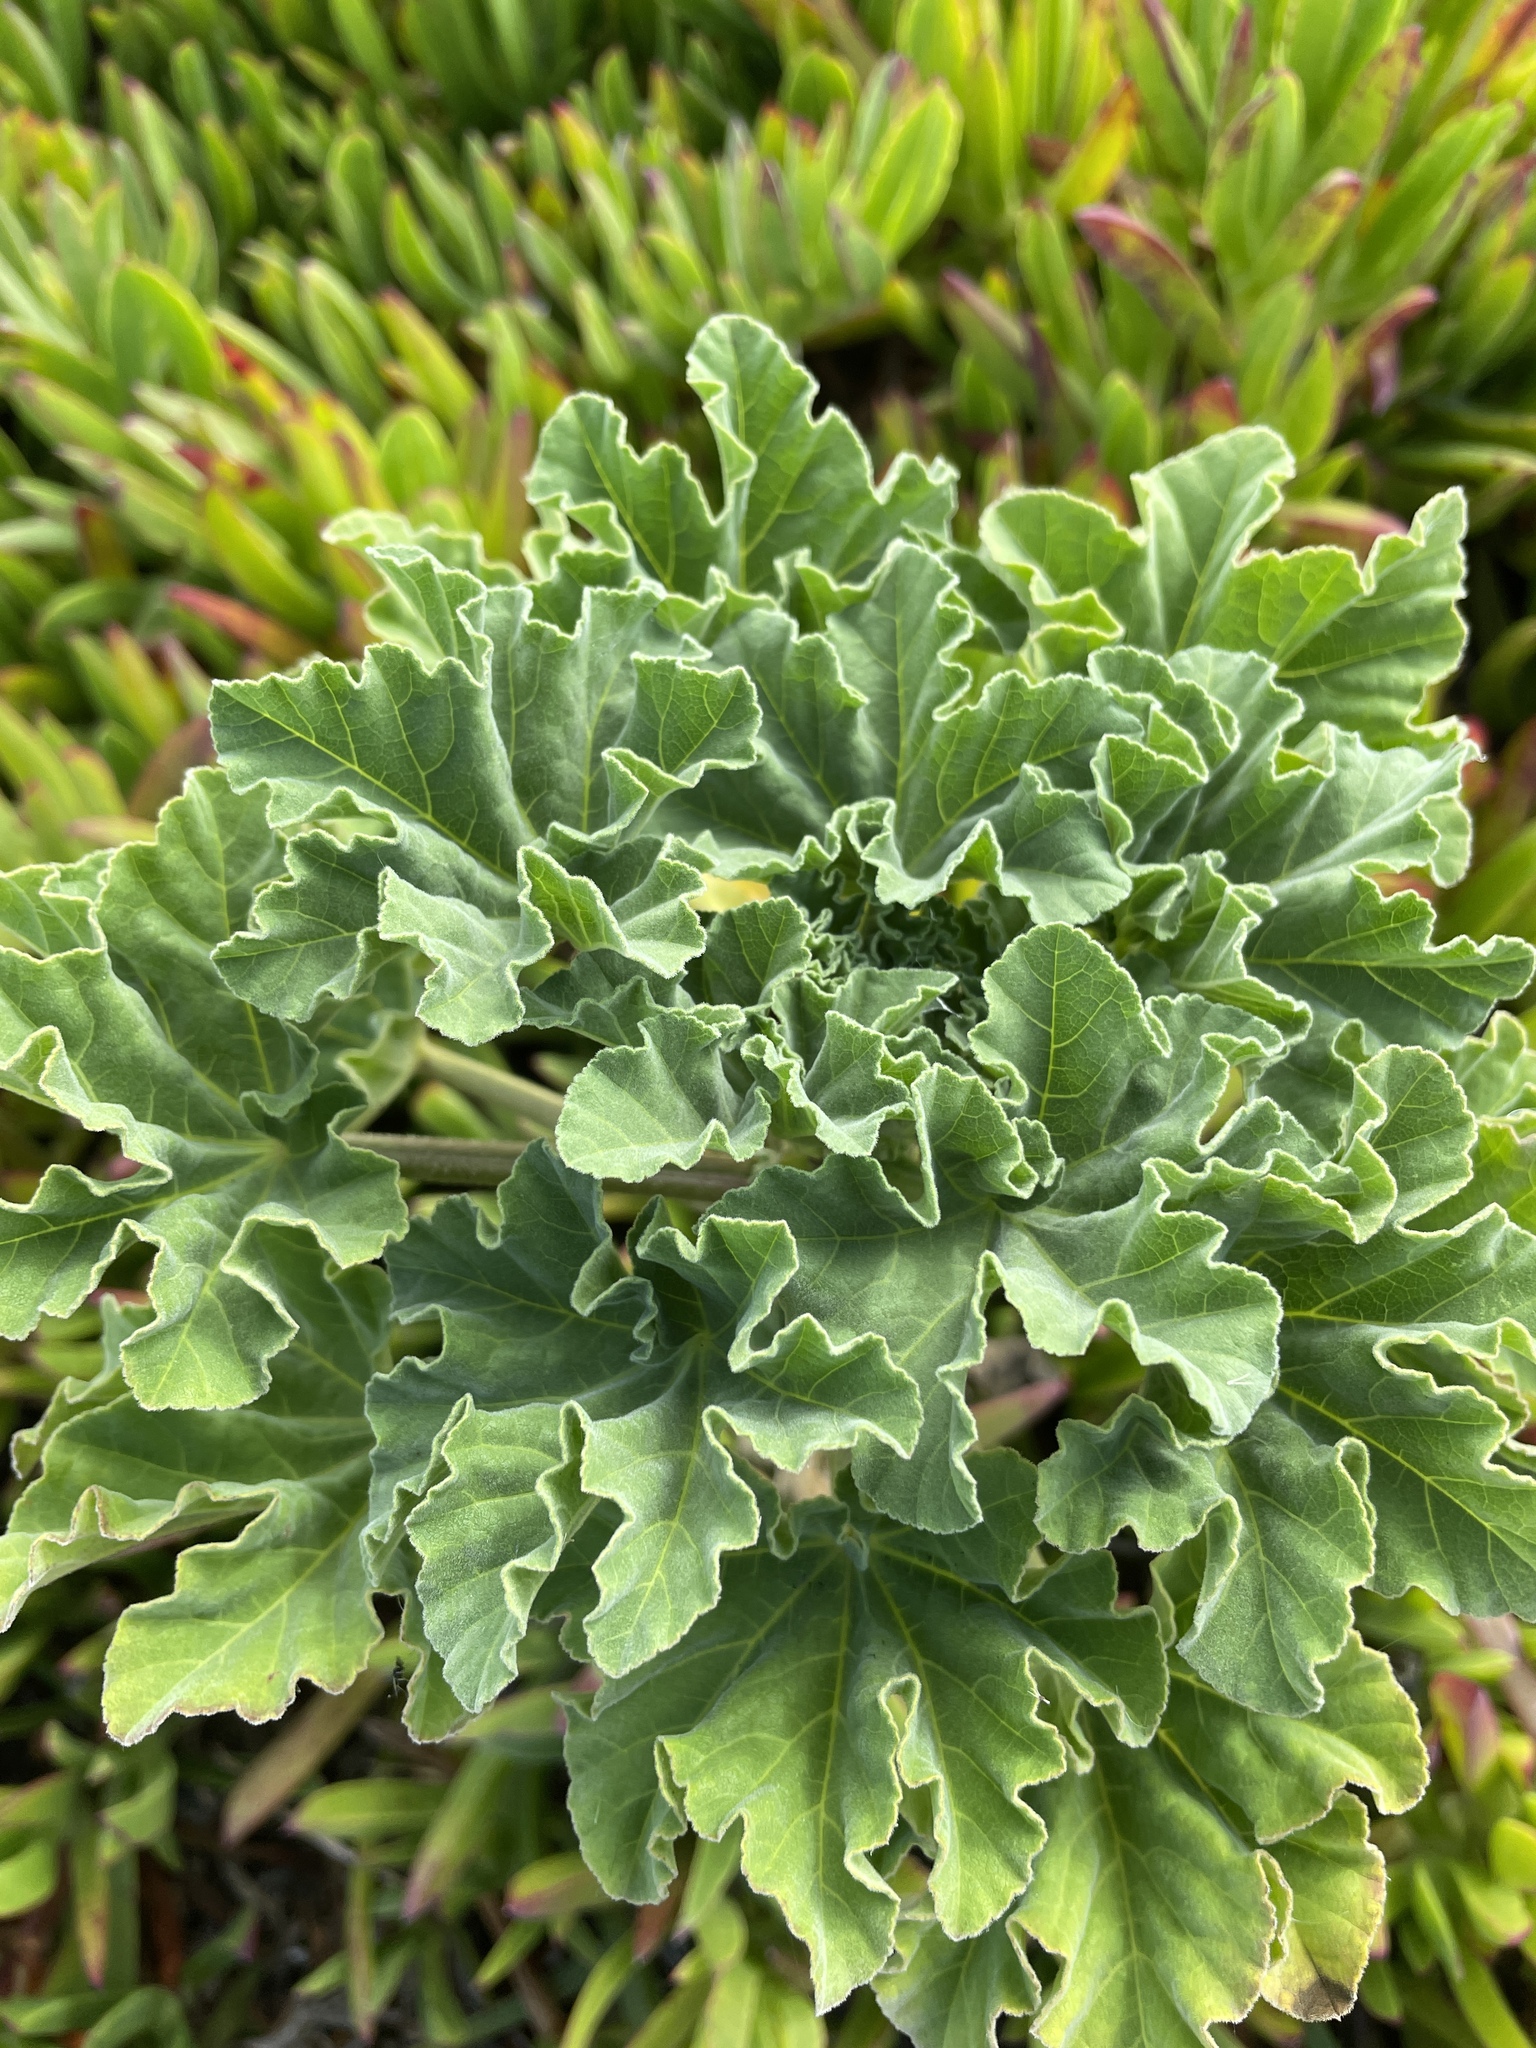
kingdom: Plantae
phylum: Tracheophyta
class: Magnoliopsida
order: Malvales
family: Malvaceae
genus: Malva
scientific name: Malva arborea
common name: Tree mallow
